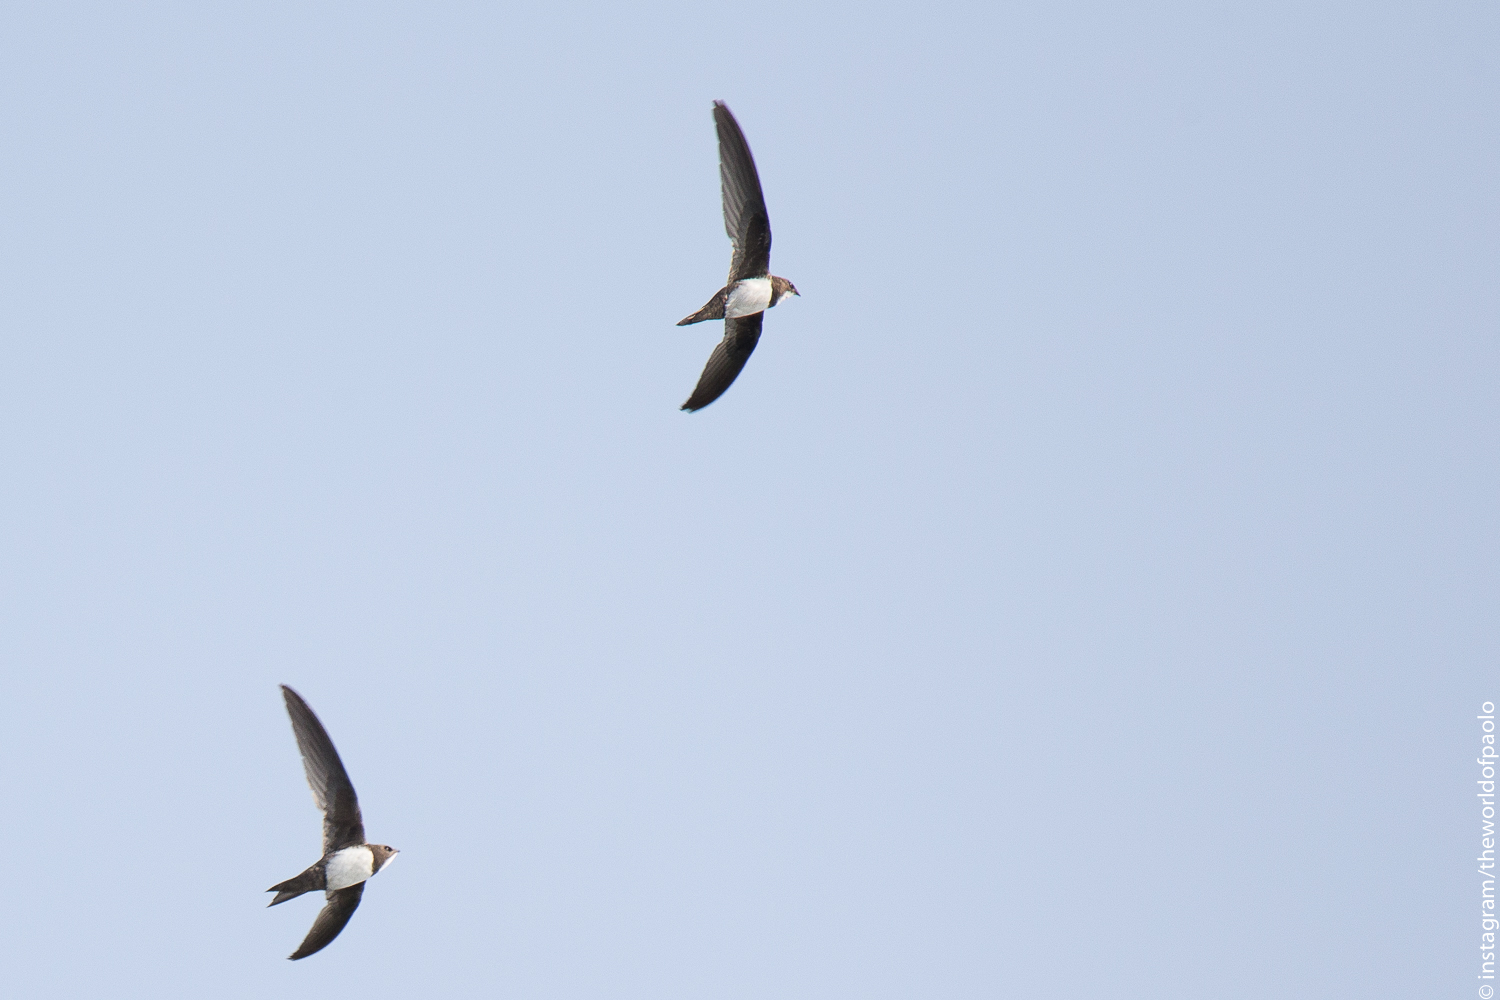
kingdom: Animalia
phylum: Chordata
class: Aves
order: Apodiformes
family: Apodidae
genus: Tachymarptis
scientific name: Tachymarptis melba
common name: Alpine swift
